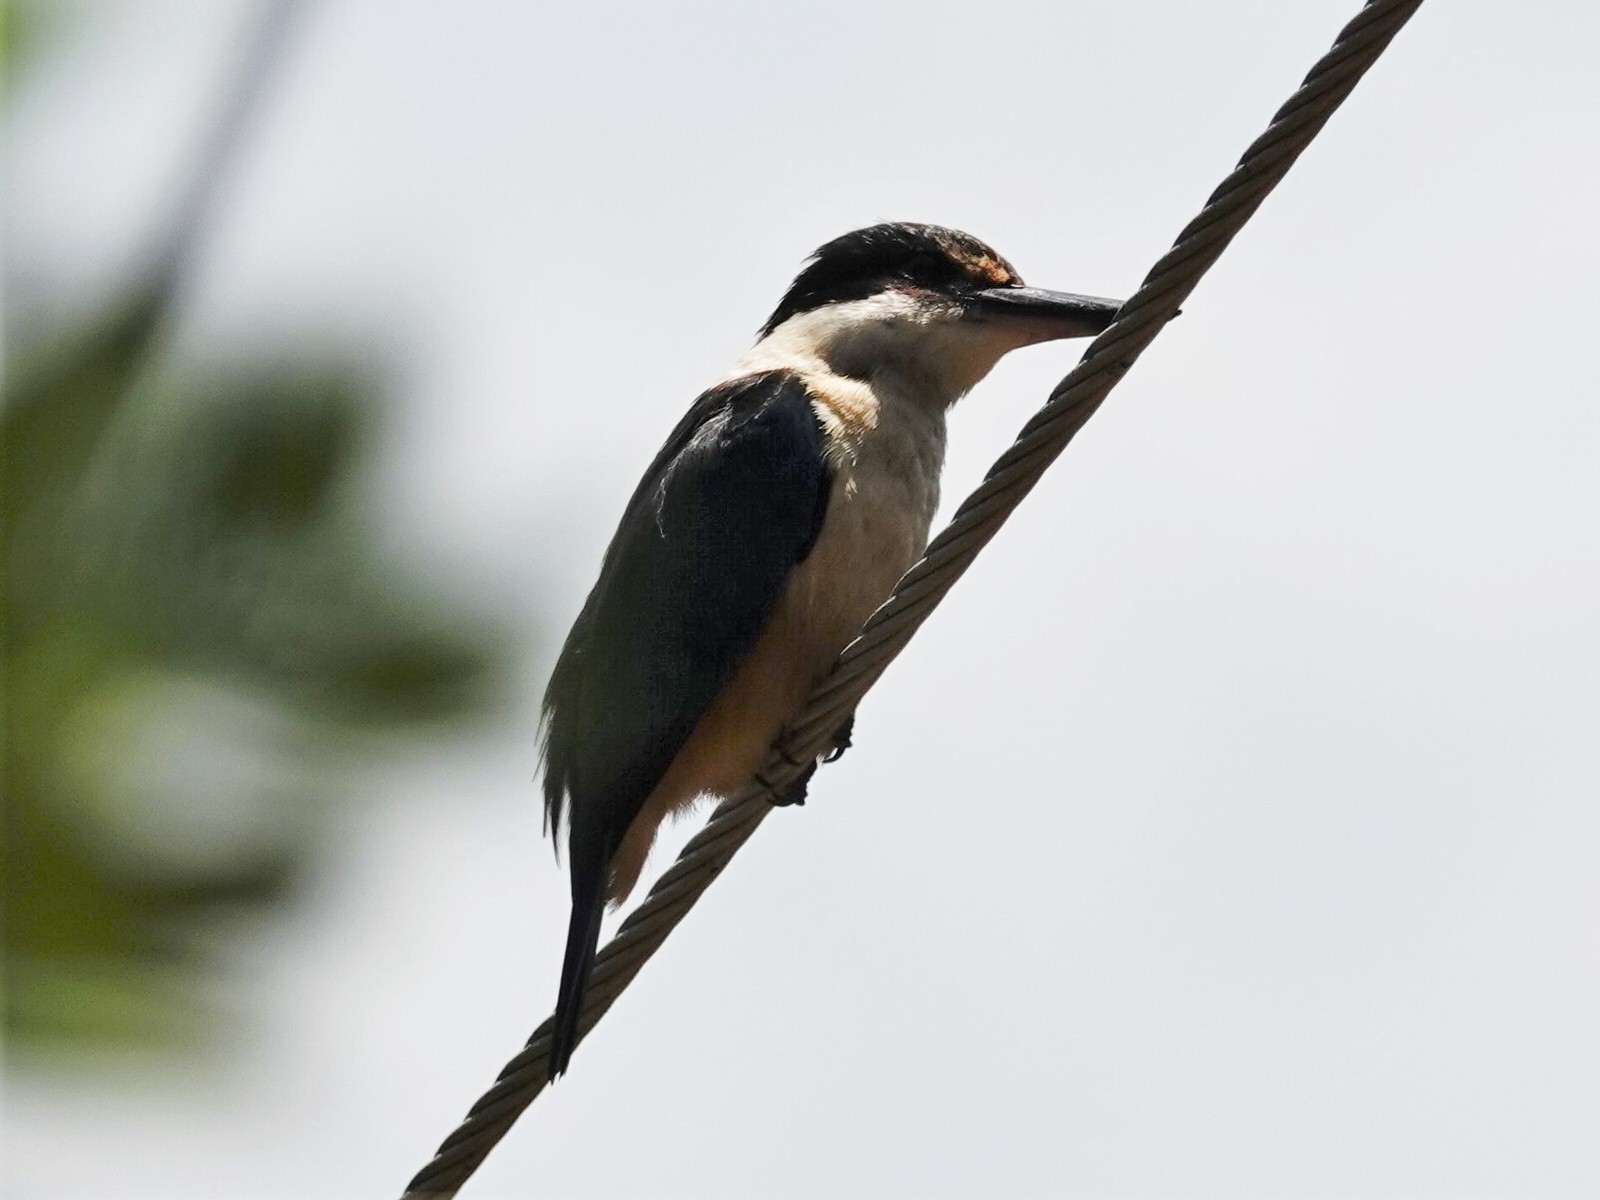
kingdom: Animalia
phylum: Chordata
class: Aves
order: Coraciiformes
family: Alcedinidae
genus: Todiramphus
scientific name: Todiramphus sanctus
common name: Sacred kingfisher
